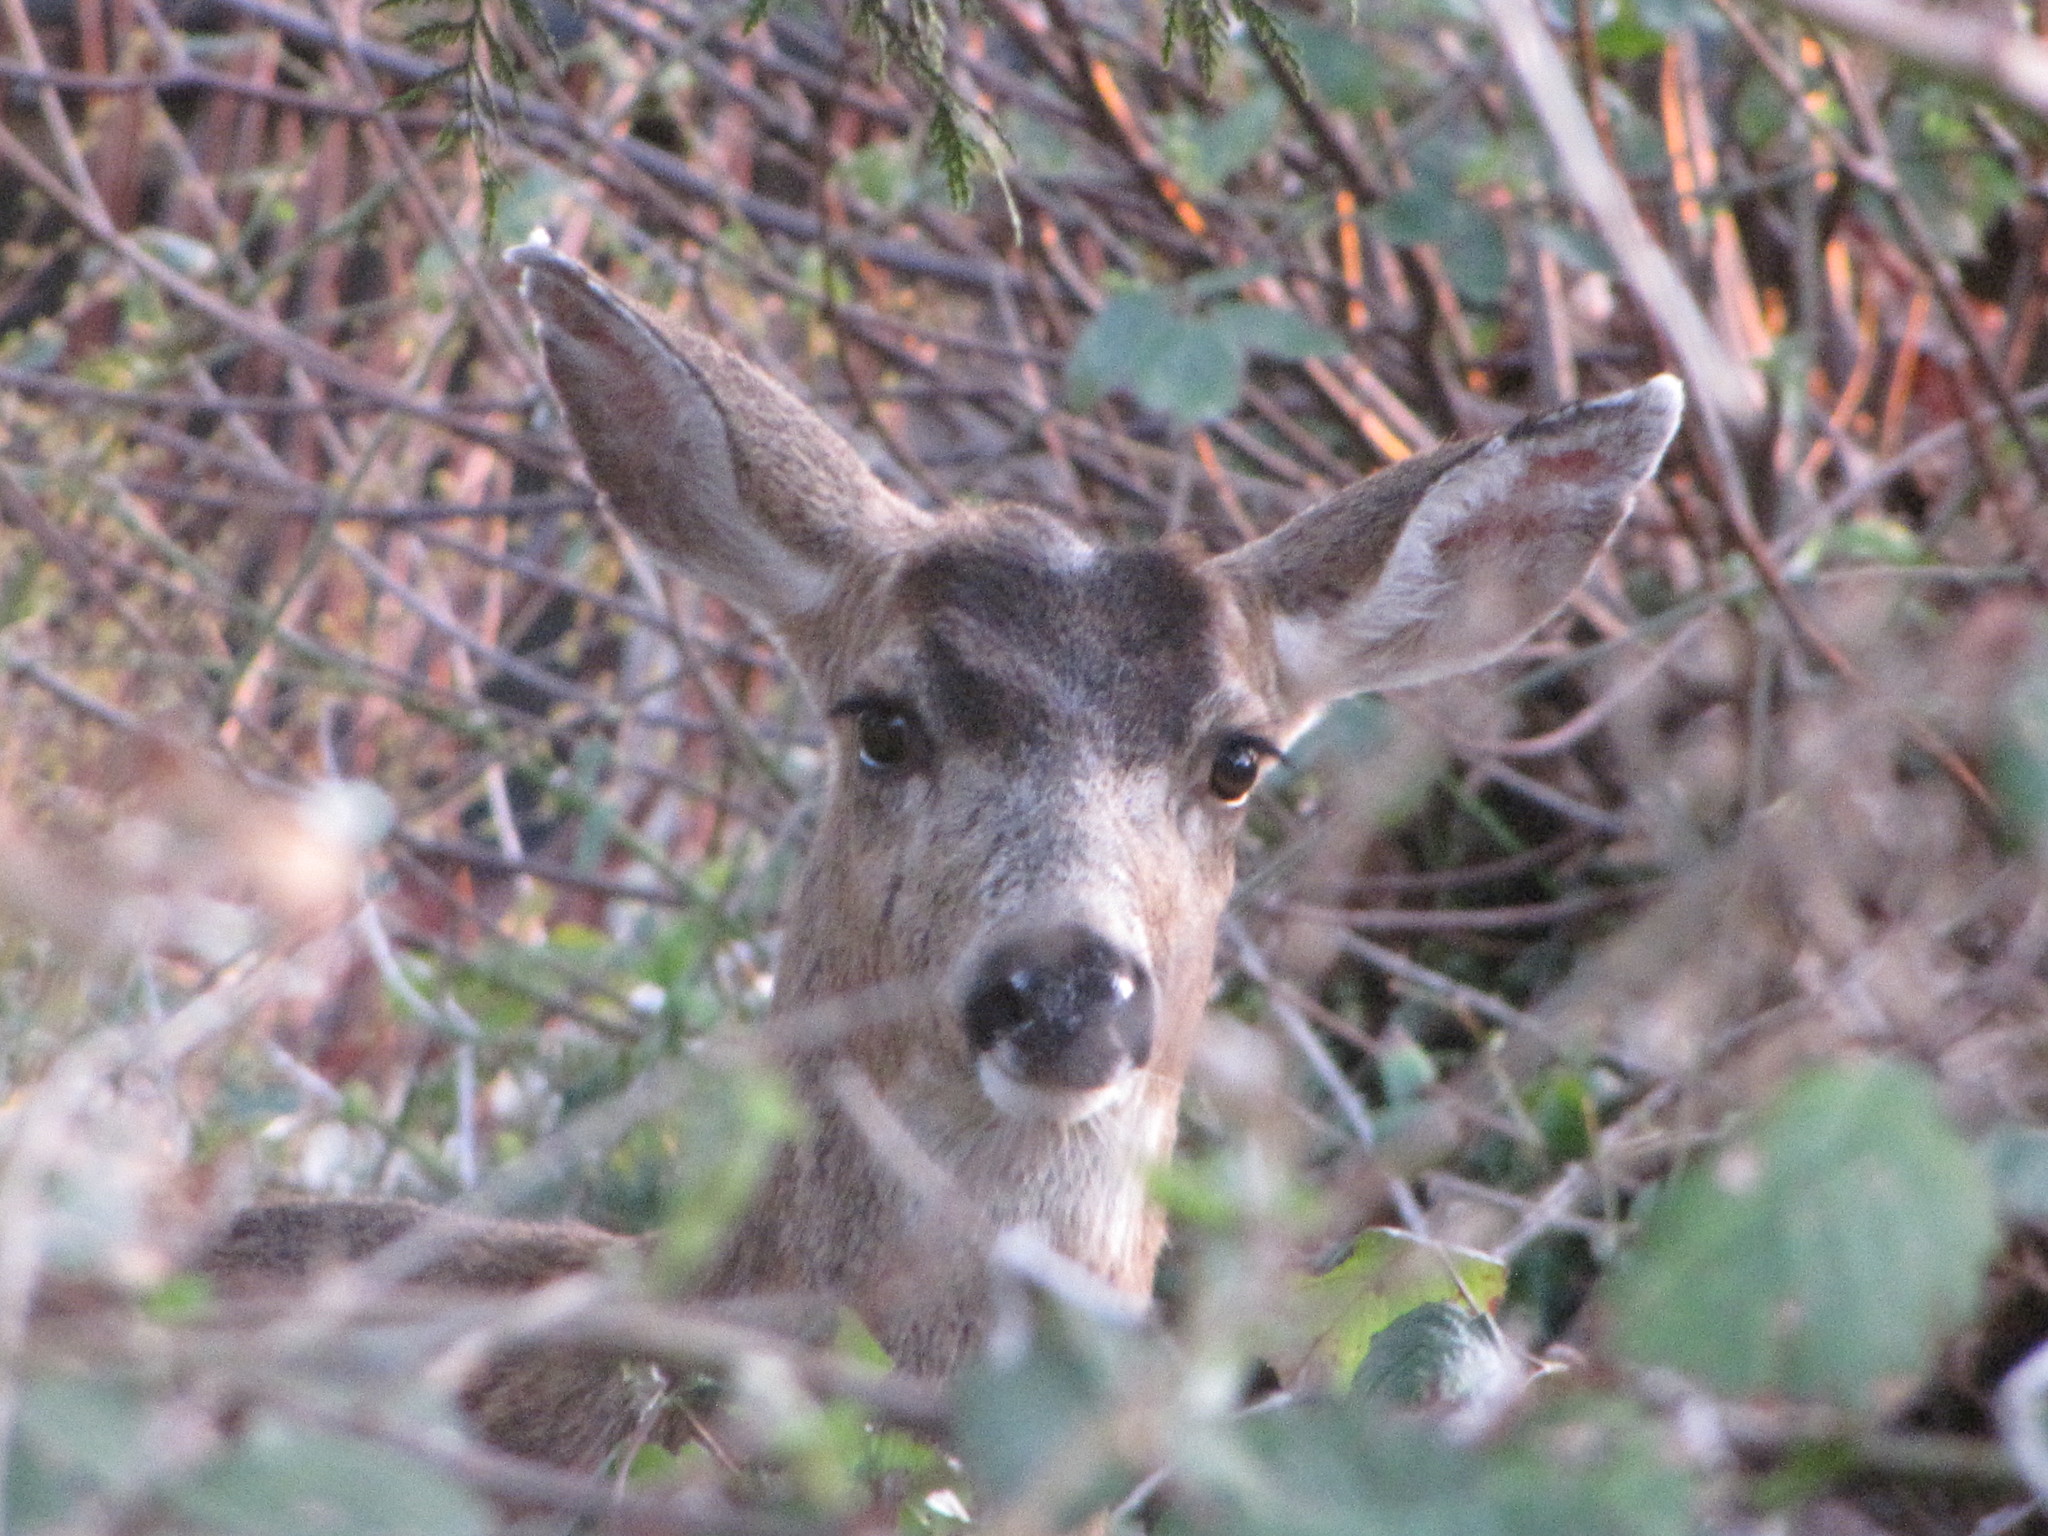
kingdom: Animalia
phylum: Chordata
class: Mammalia
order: Artiodactyla
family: Cervidae
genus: Odocoileus
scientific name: Odocoileus hemionus
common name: Mule deer
